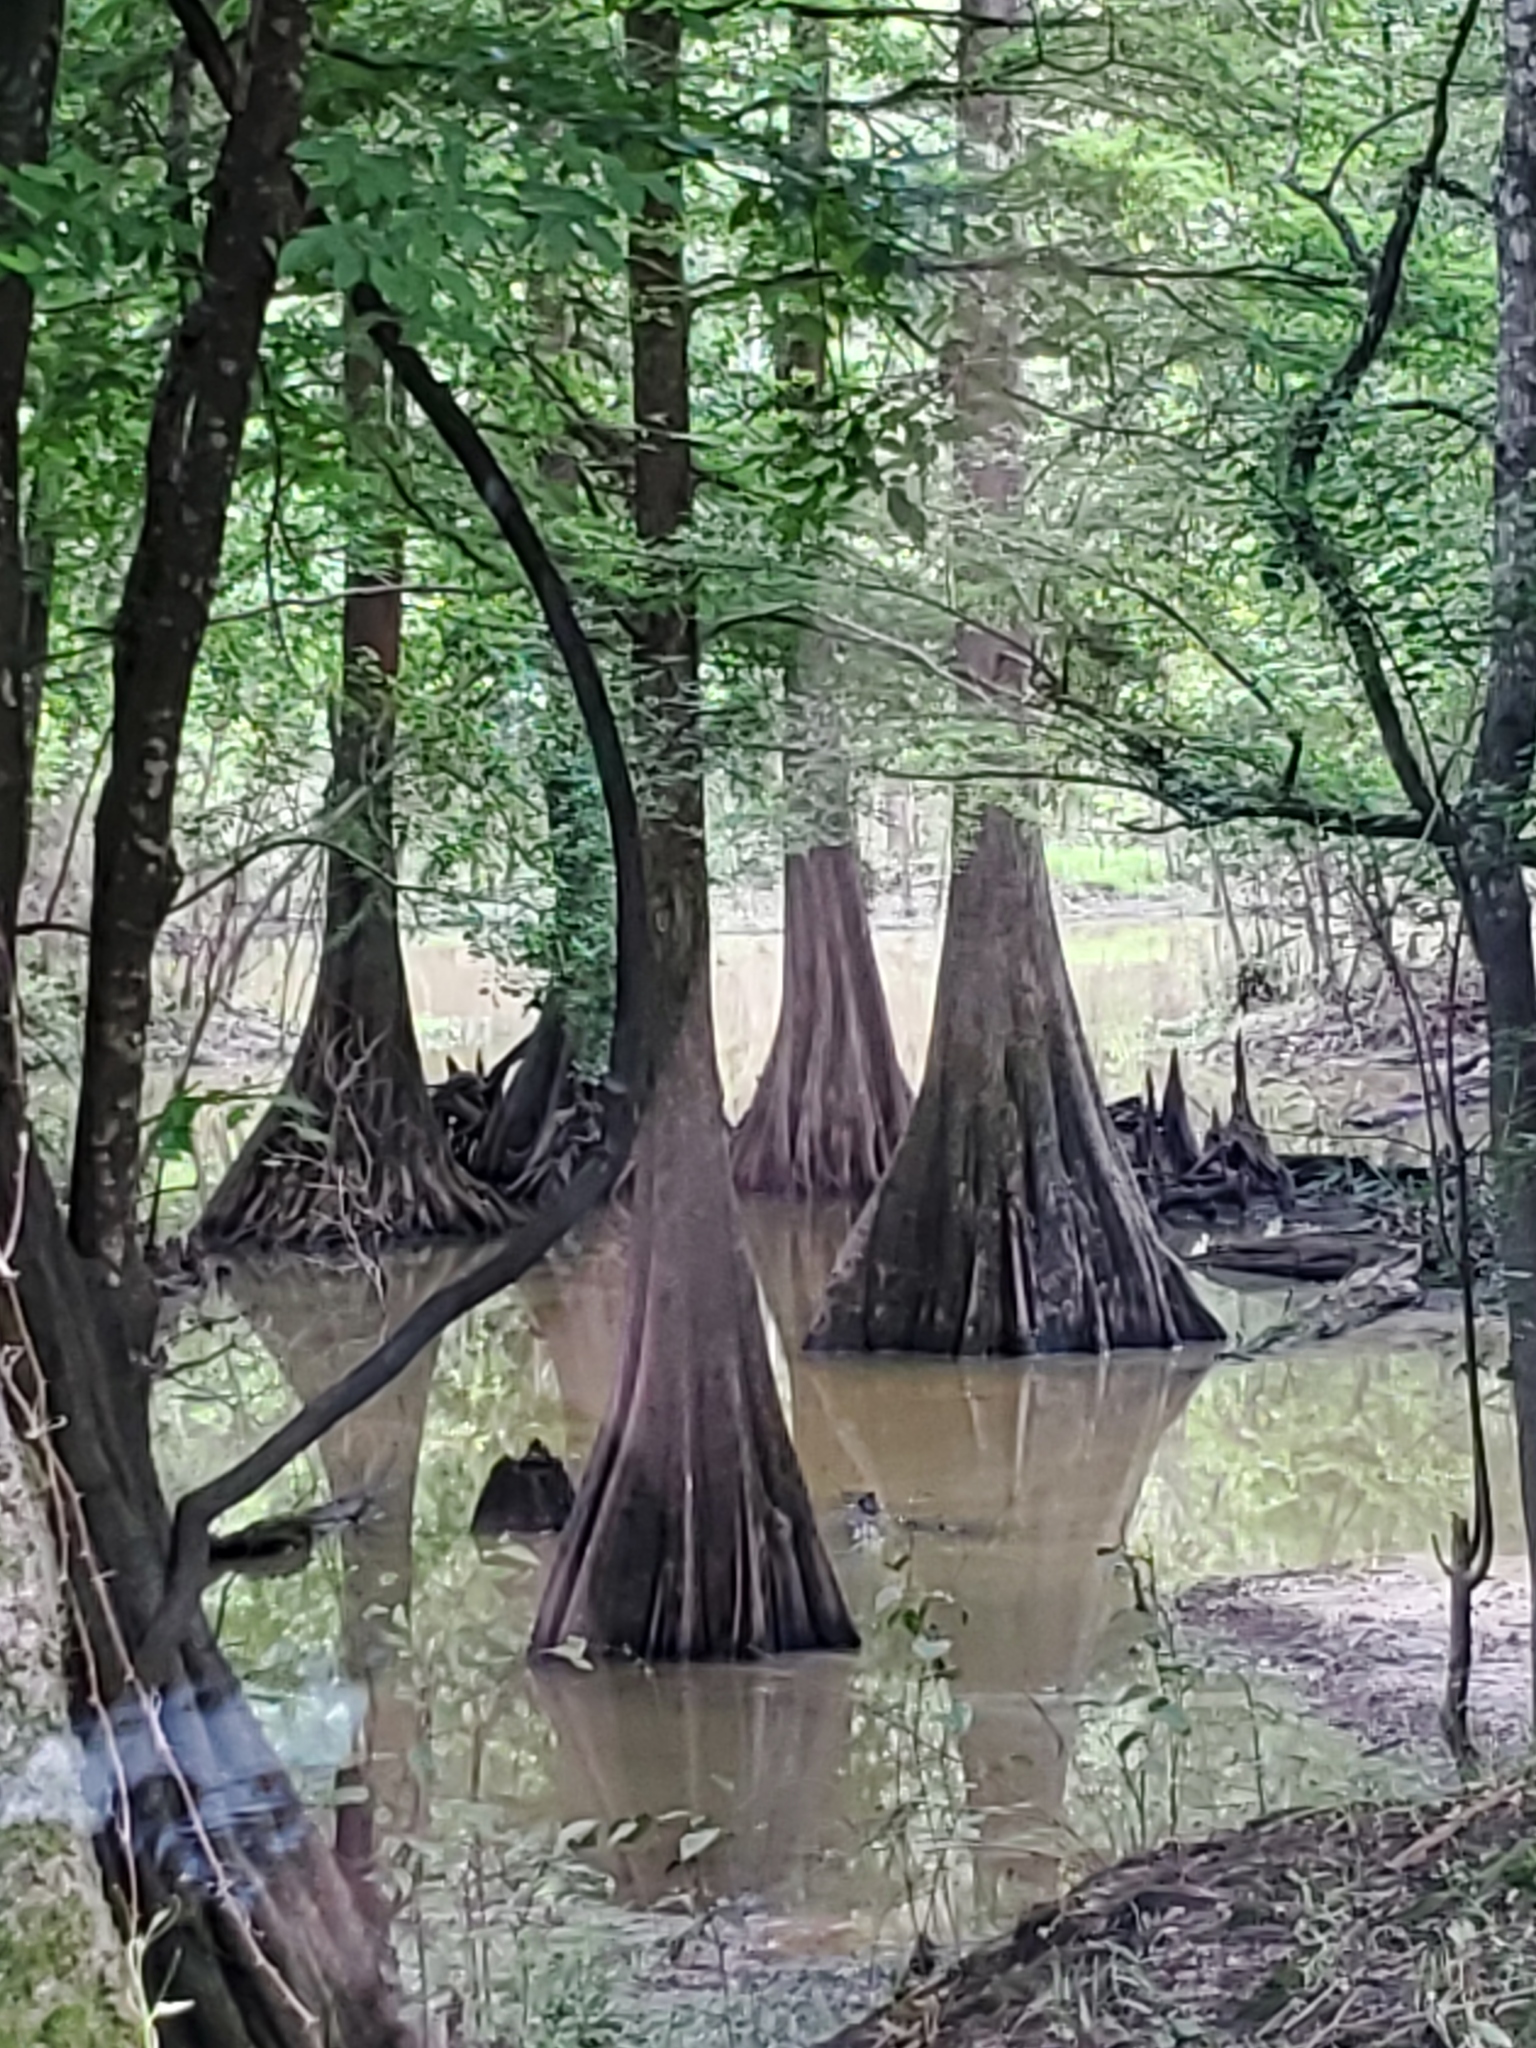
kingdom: Plantae
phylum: Tracheophyta
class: Pinopsida
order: Pinales
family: Cupressaceae
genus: Taxodium
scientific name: Taxodium distichum
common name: Bald cypress
